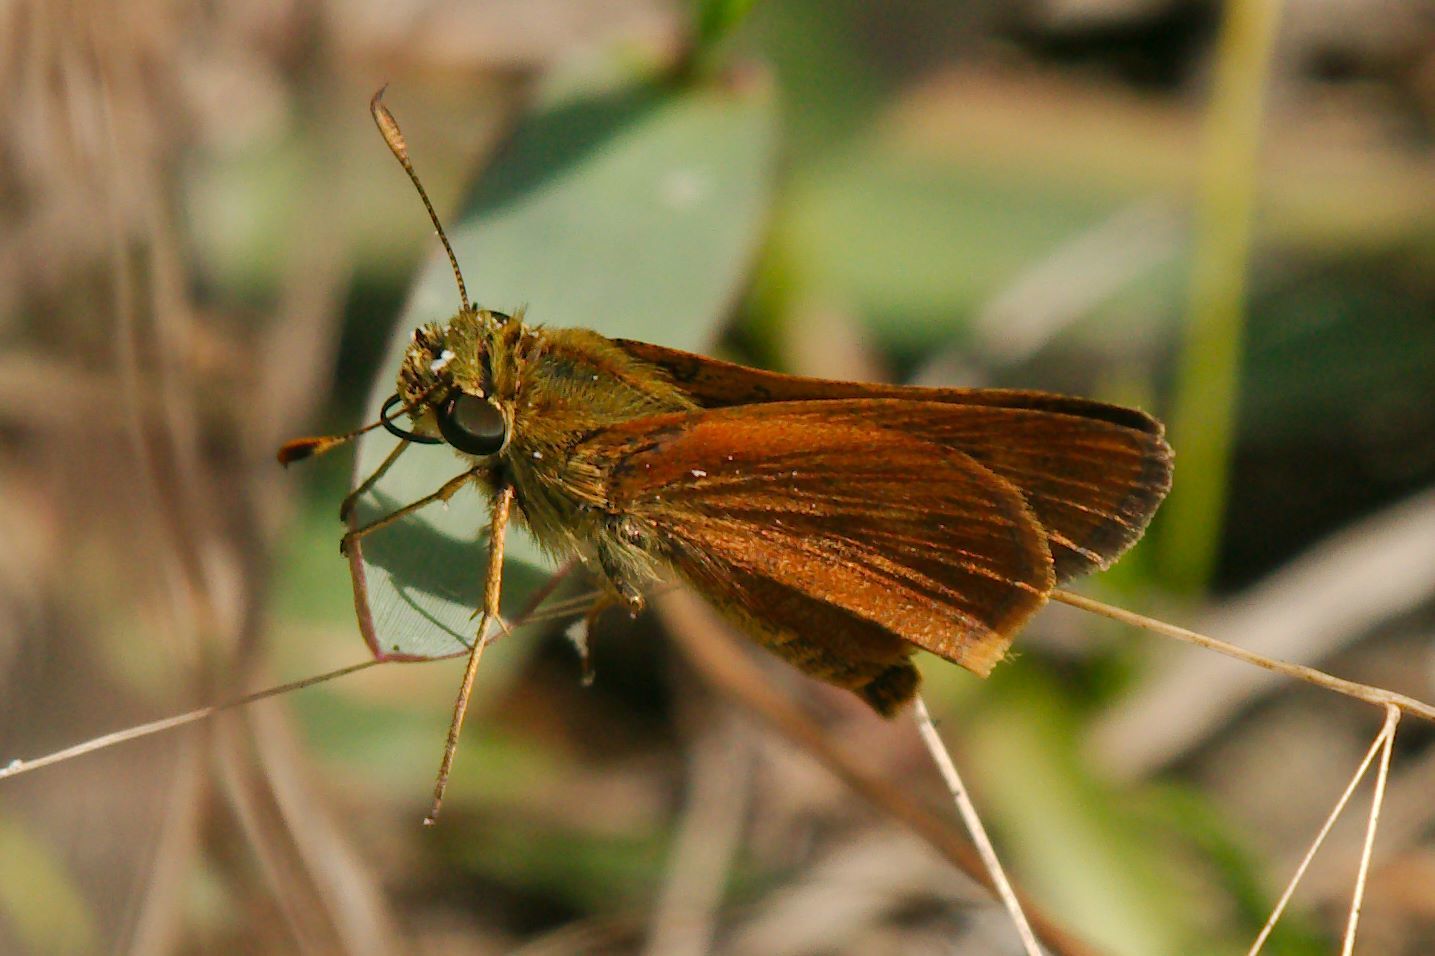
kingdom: Animalia
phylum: Arthropoda
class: Insecta
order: Lepidoptera
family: Hesperiidae
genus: Polites
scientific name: Polites otho
